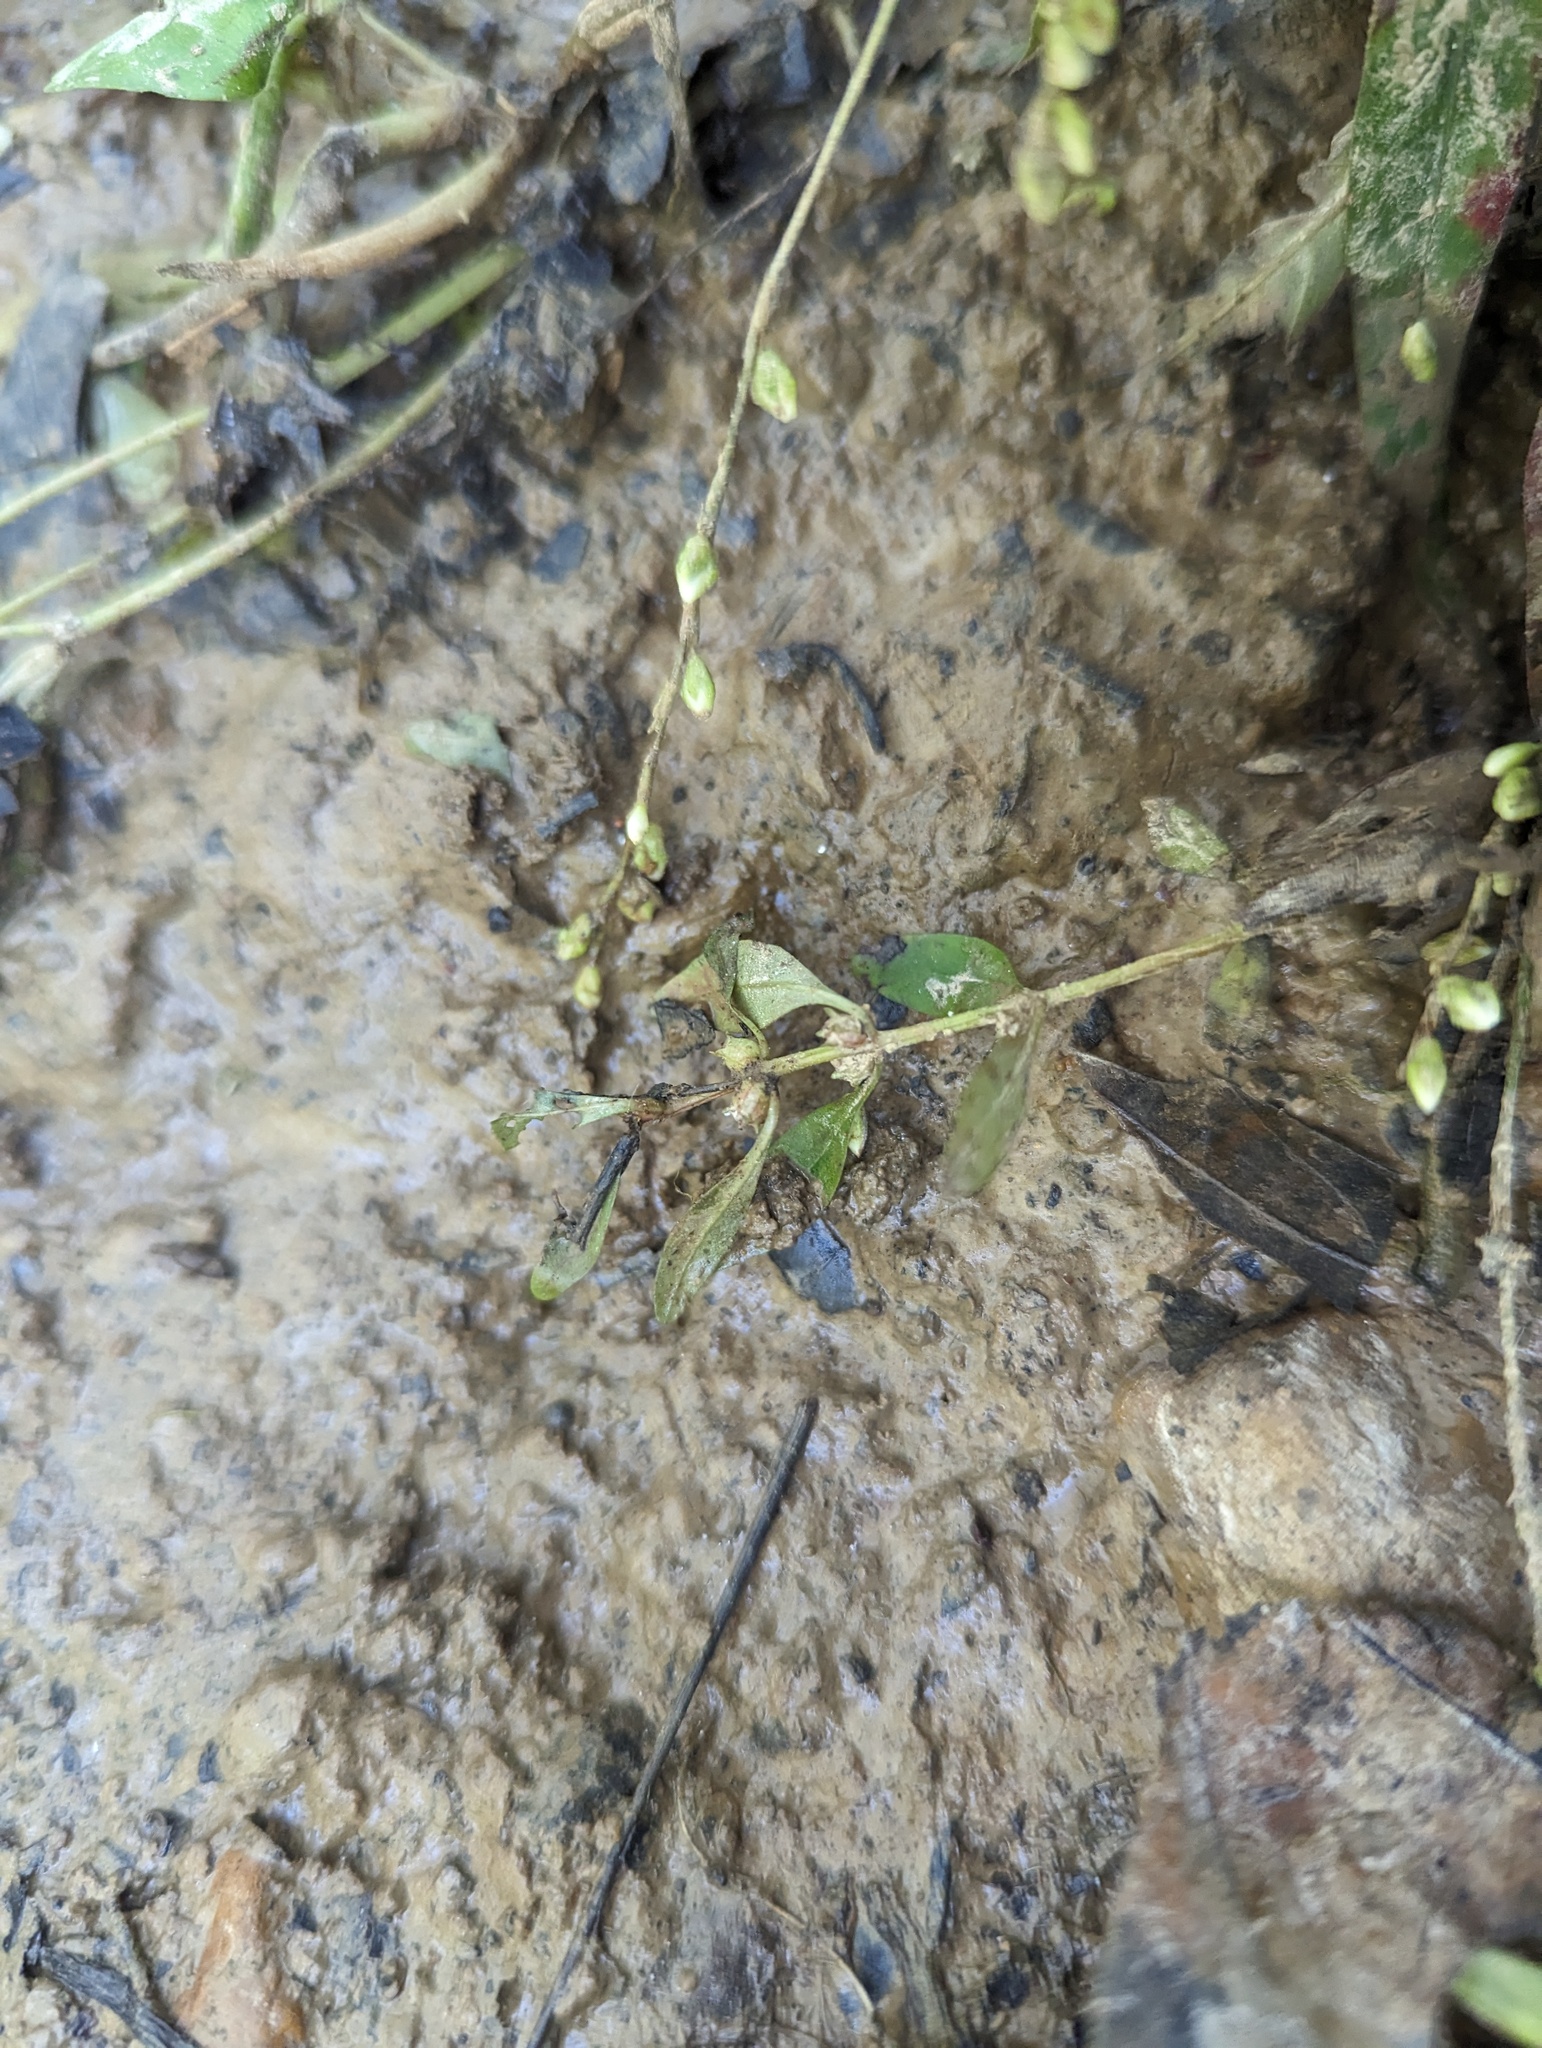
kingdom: Plantae
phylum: Tracheophyta
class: Magnoliopsida
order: Myrtales
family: Lythraceae
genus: Rotala
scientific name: Rotala ramosior
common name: Lowland rotala
